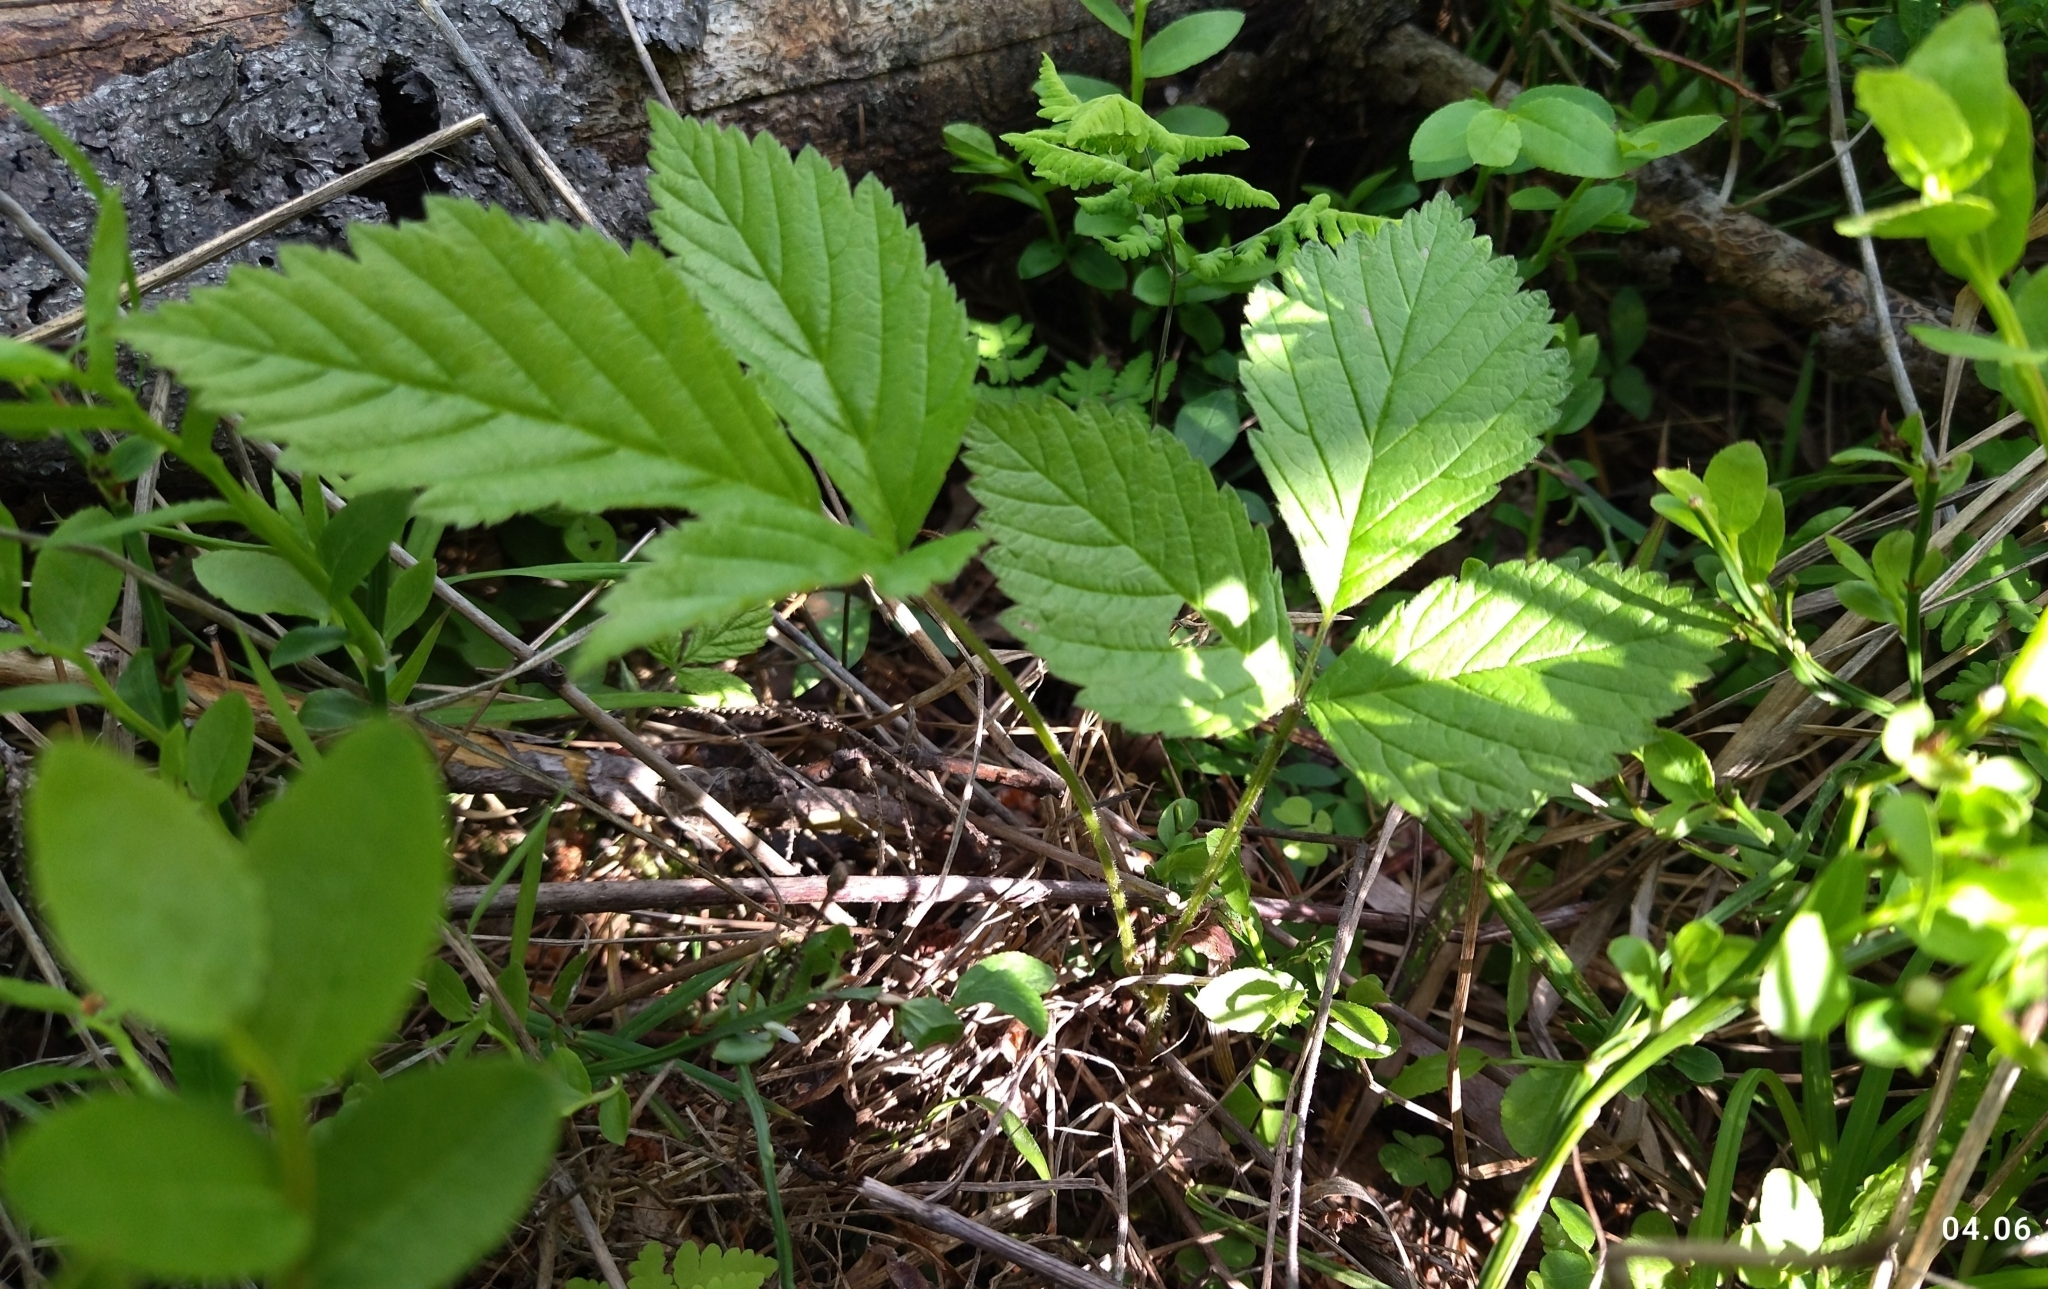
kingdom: Plantae
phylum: Tracheophyta
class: Magnoliopsida
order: Rosales
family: Rosaceae
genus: Rubus
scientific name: Rubus saxatilis
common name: Stone bramble
